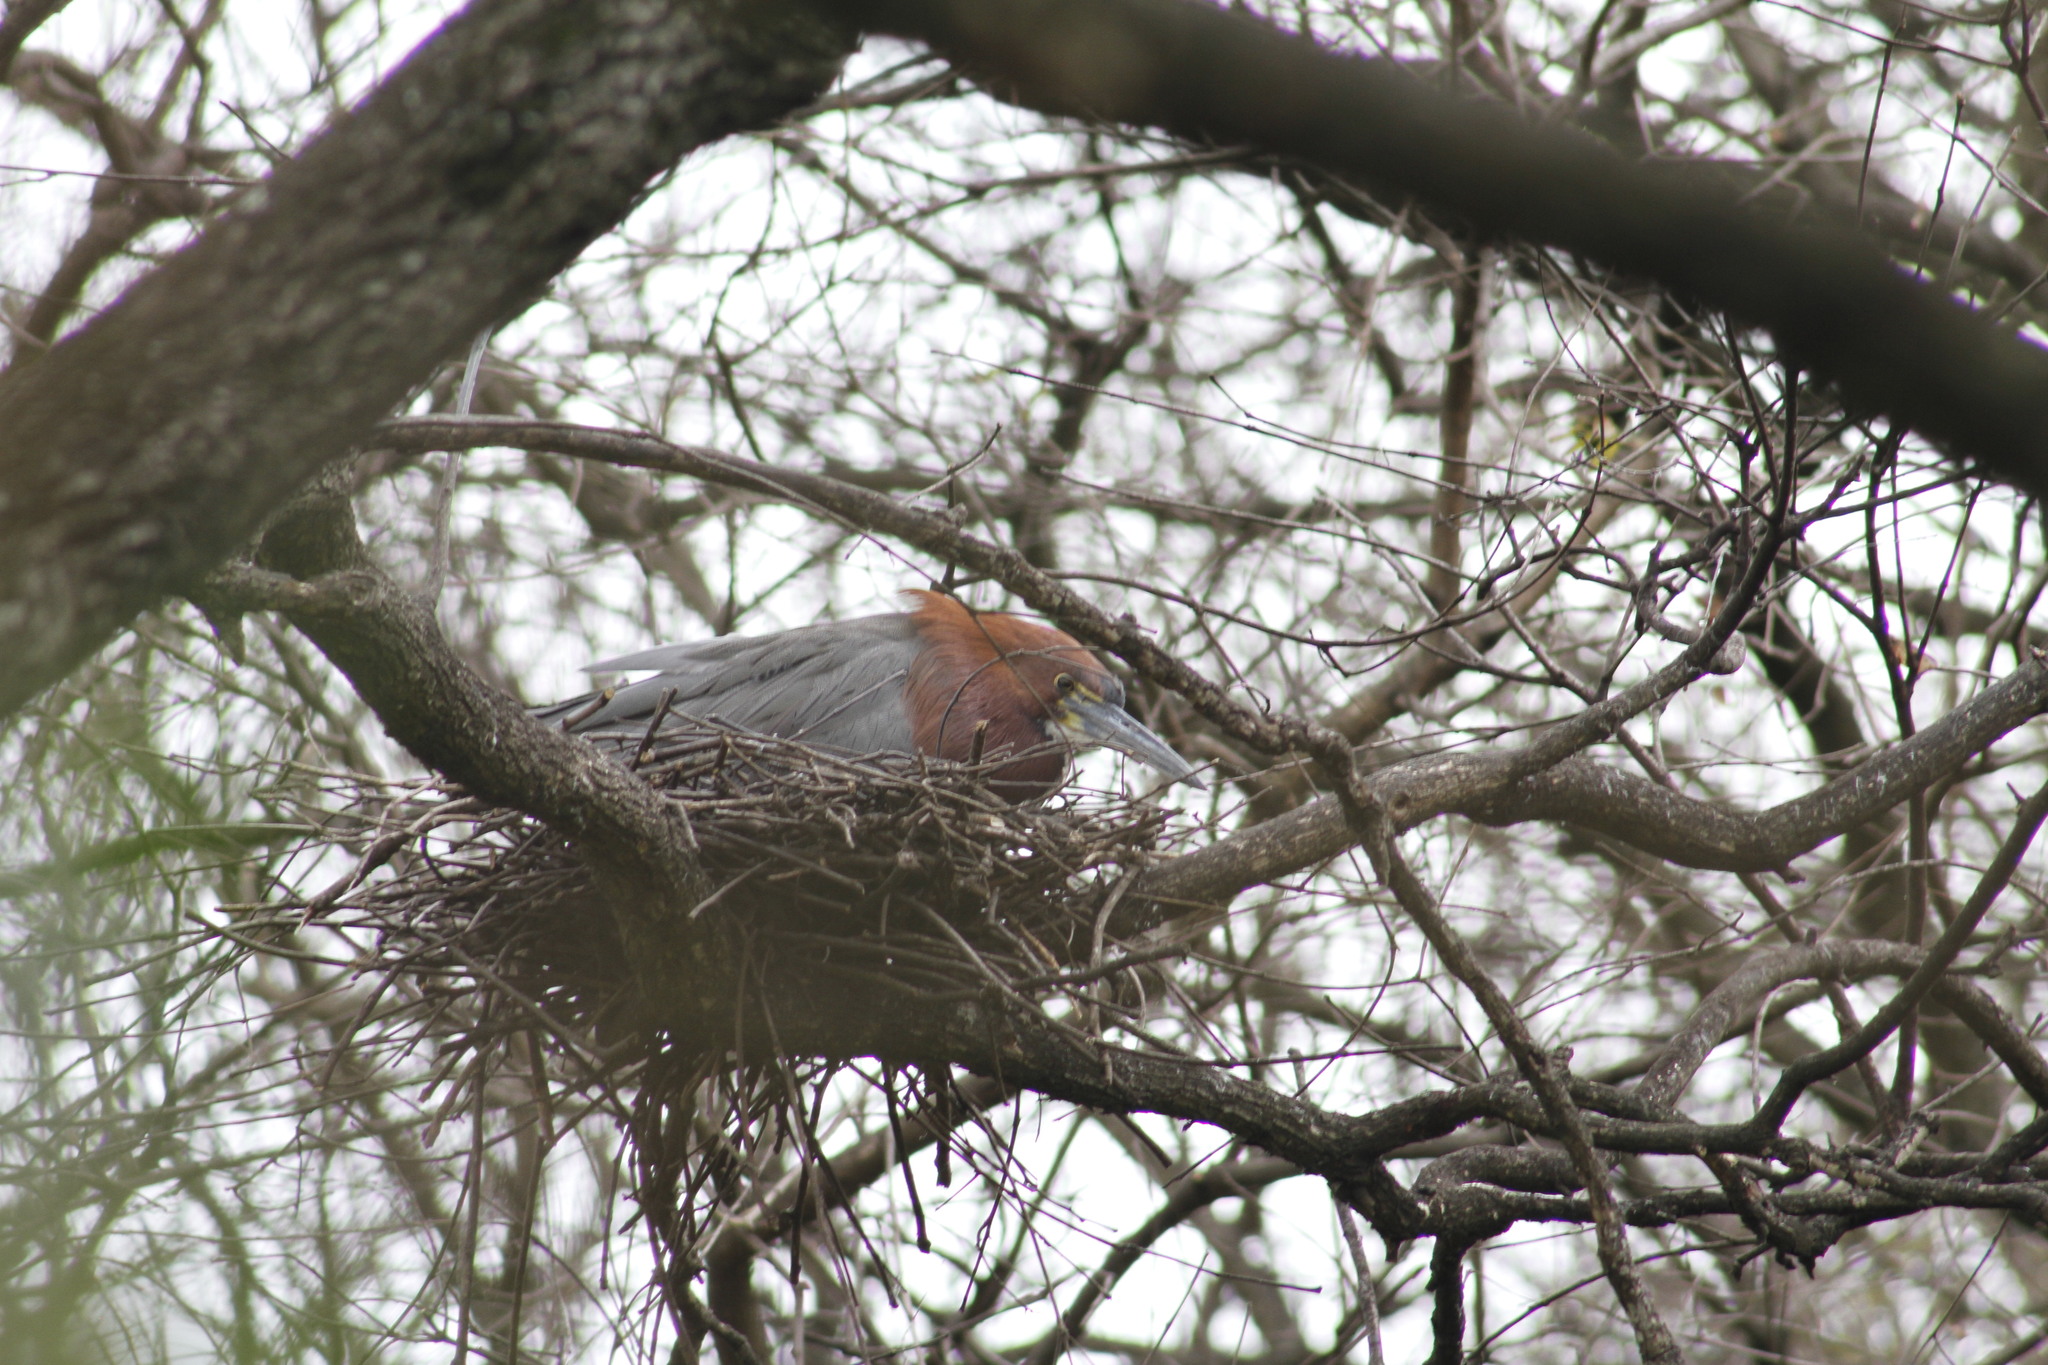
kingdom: Animalia
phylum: Chordata
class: Aves
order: Pelecaniformes
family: Ardeidae
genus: Tigrisoma
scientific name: Tigrisoma lineatum
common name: Rufescent tiger-heron
